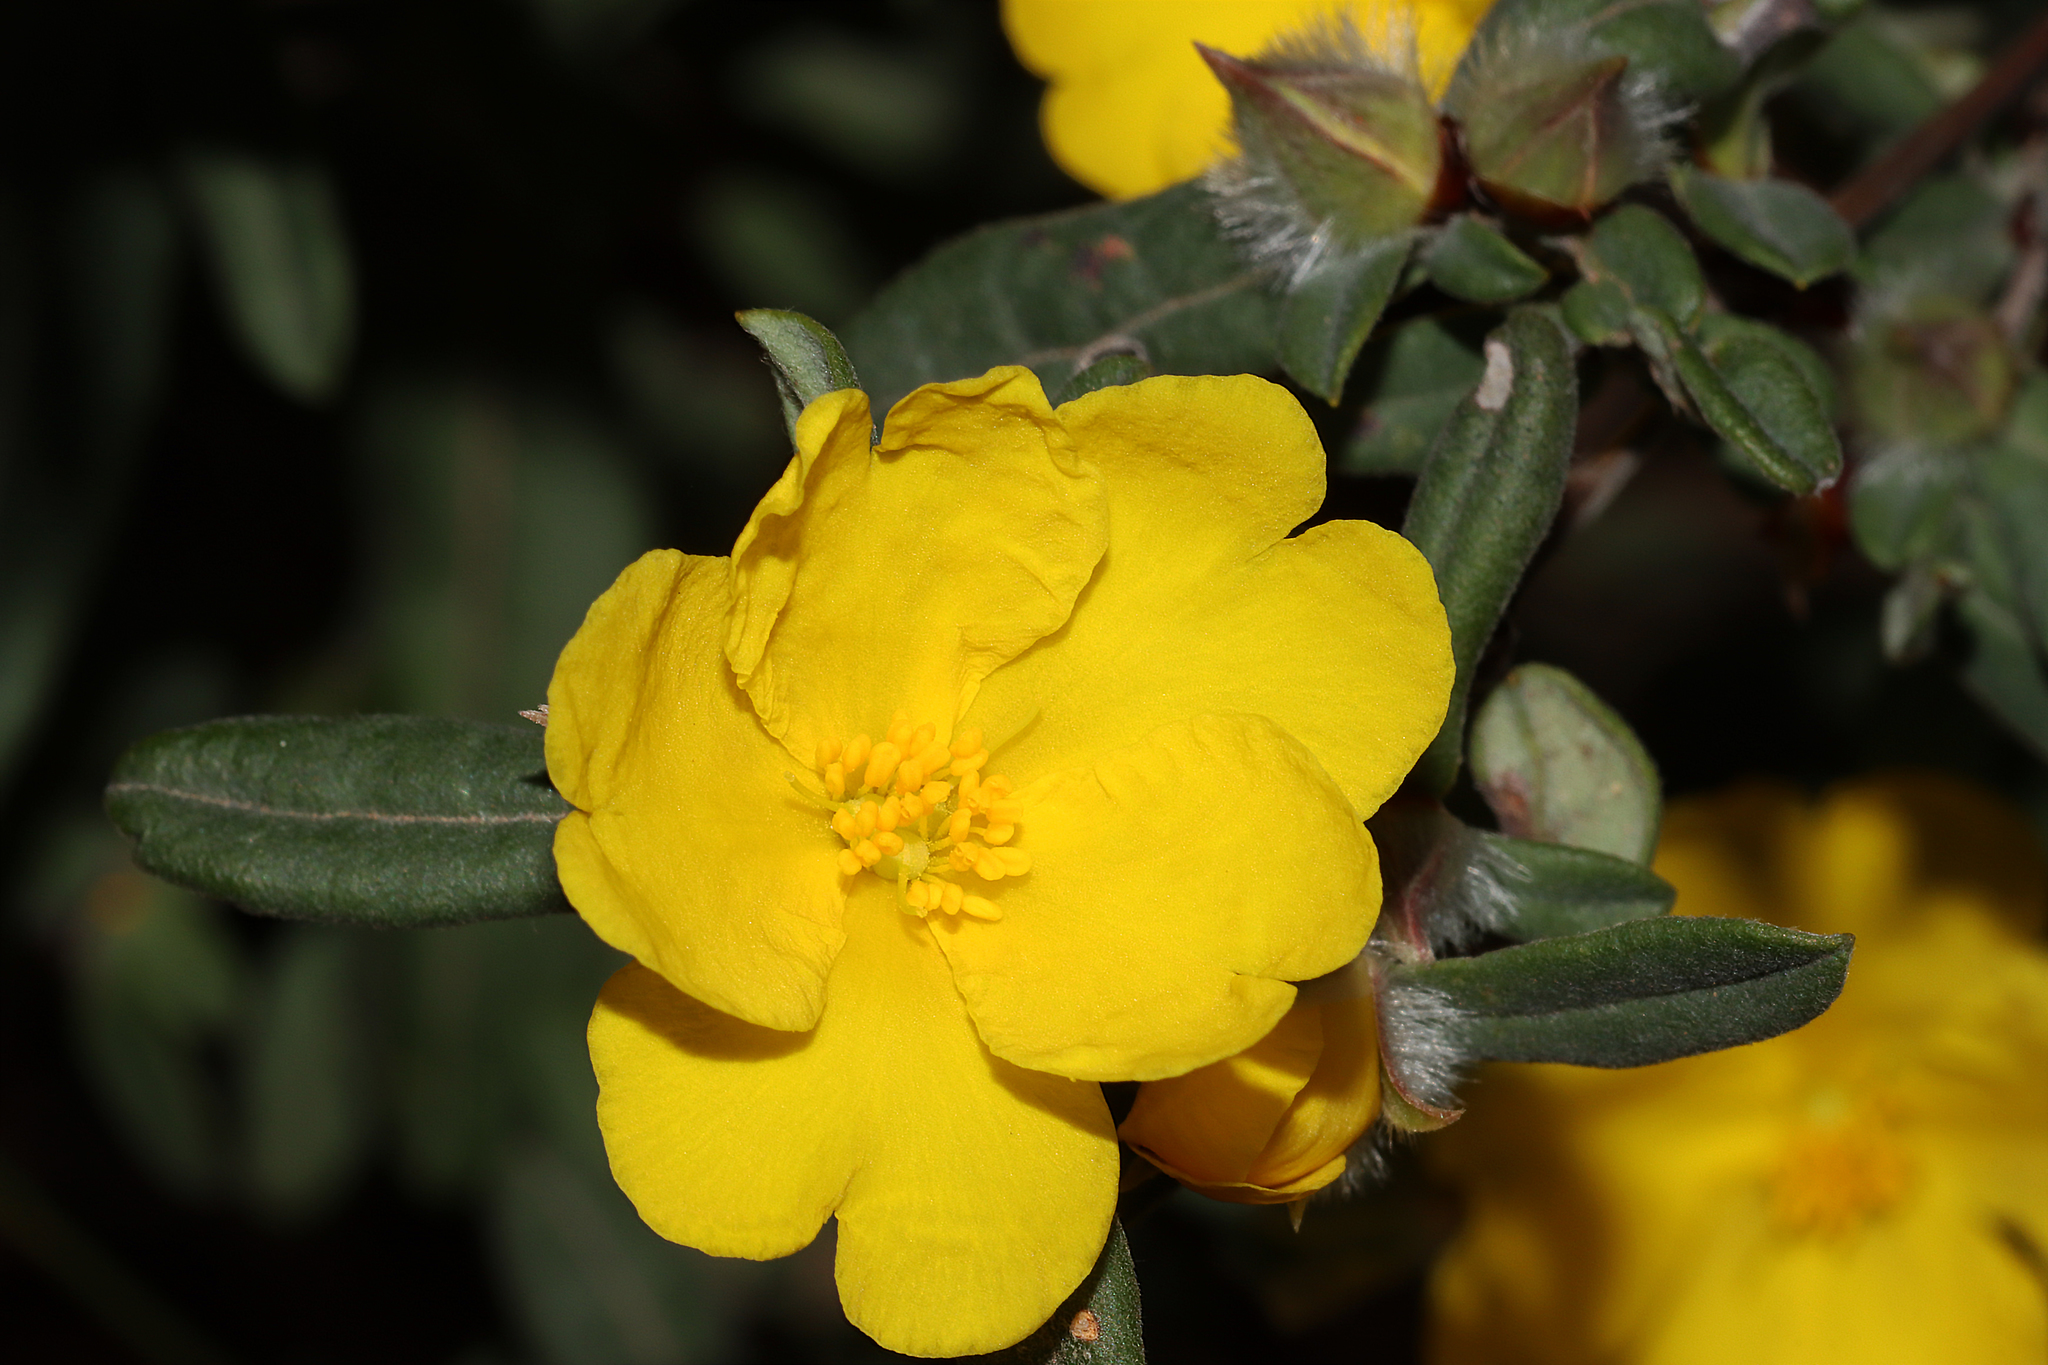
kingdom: Plantae
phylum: Tracheophyta
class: Magnoliopsida
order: Dilleniales
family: Dilleniaceae
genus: Hibbertia
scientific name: Hibbertia commutata
